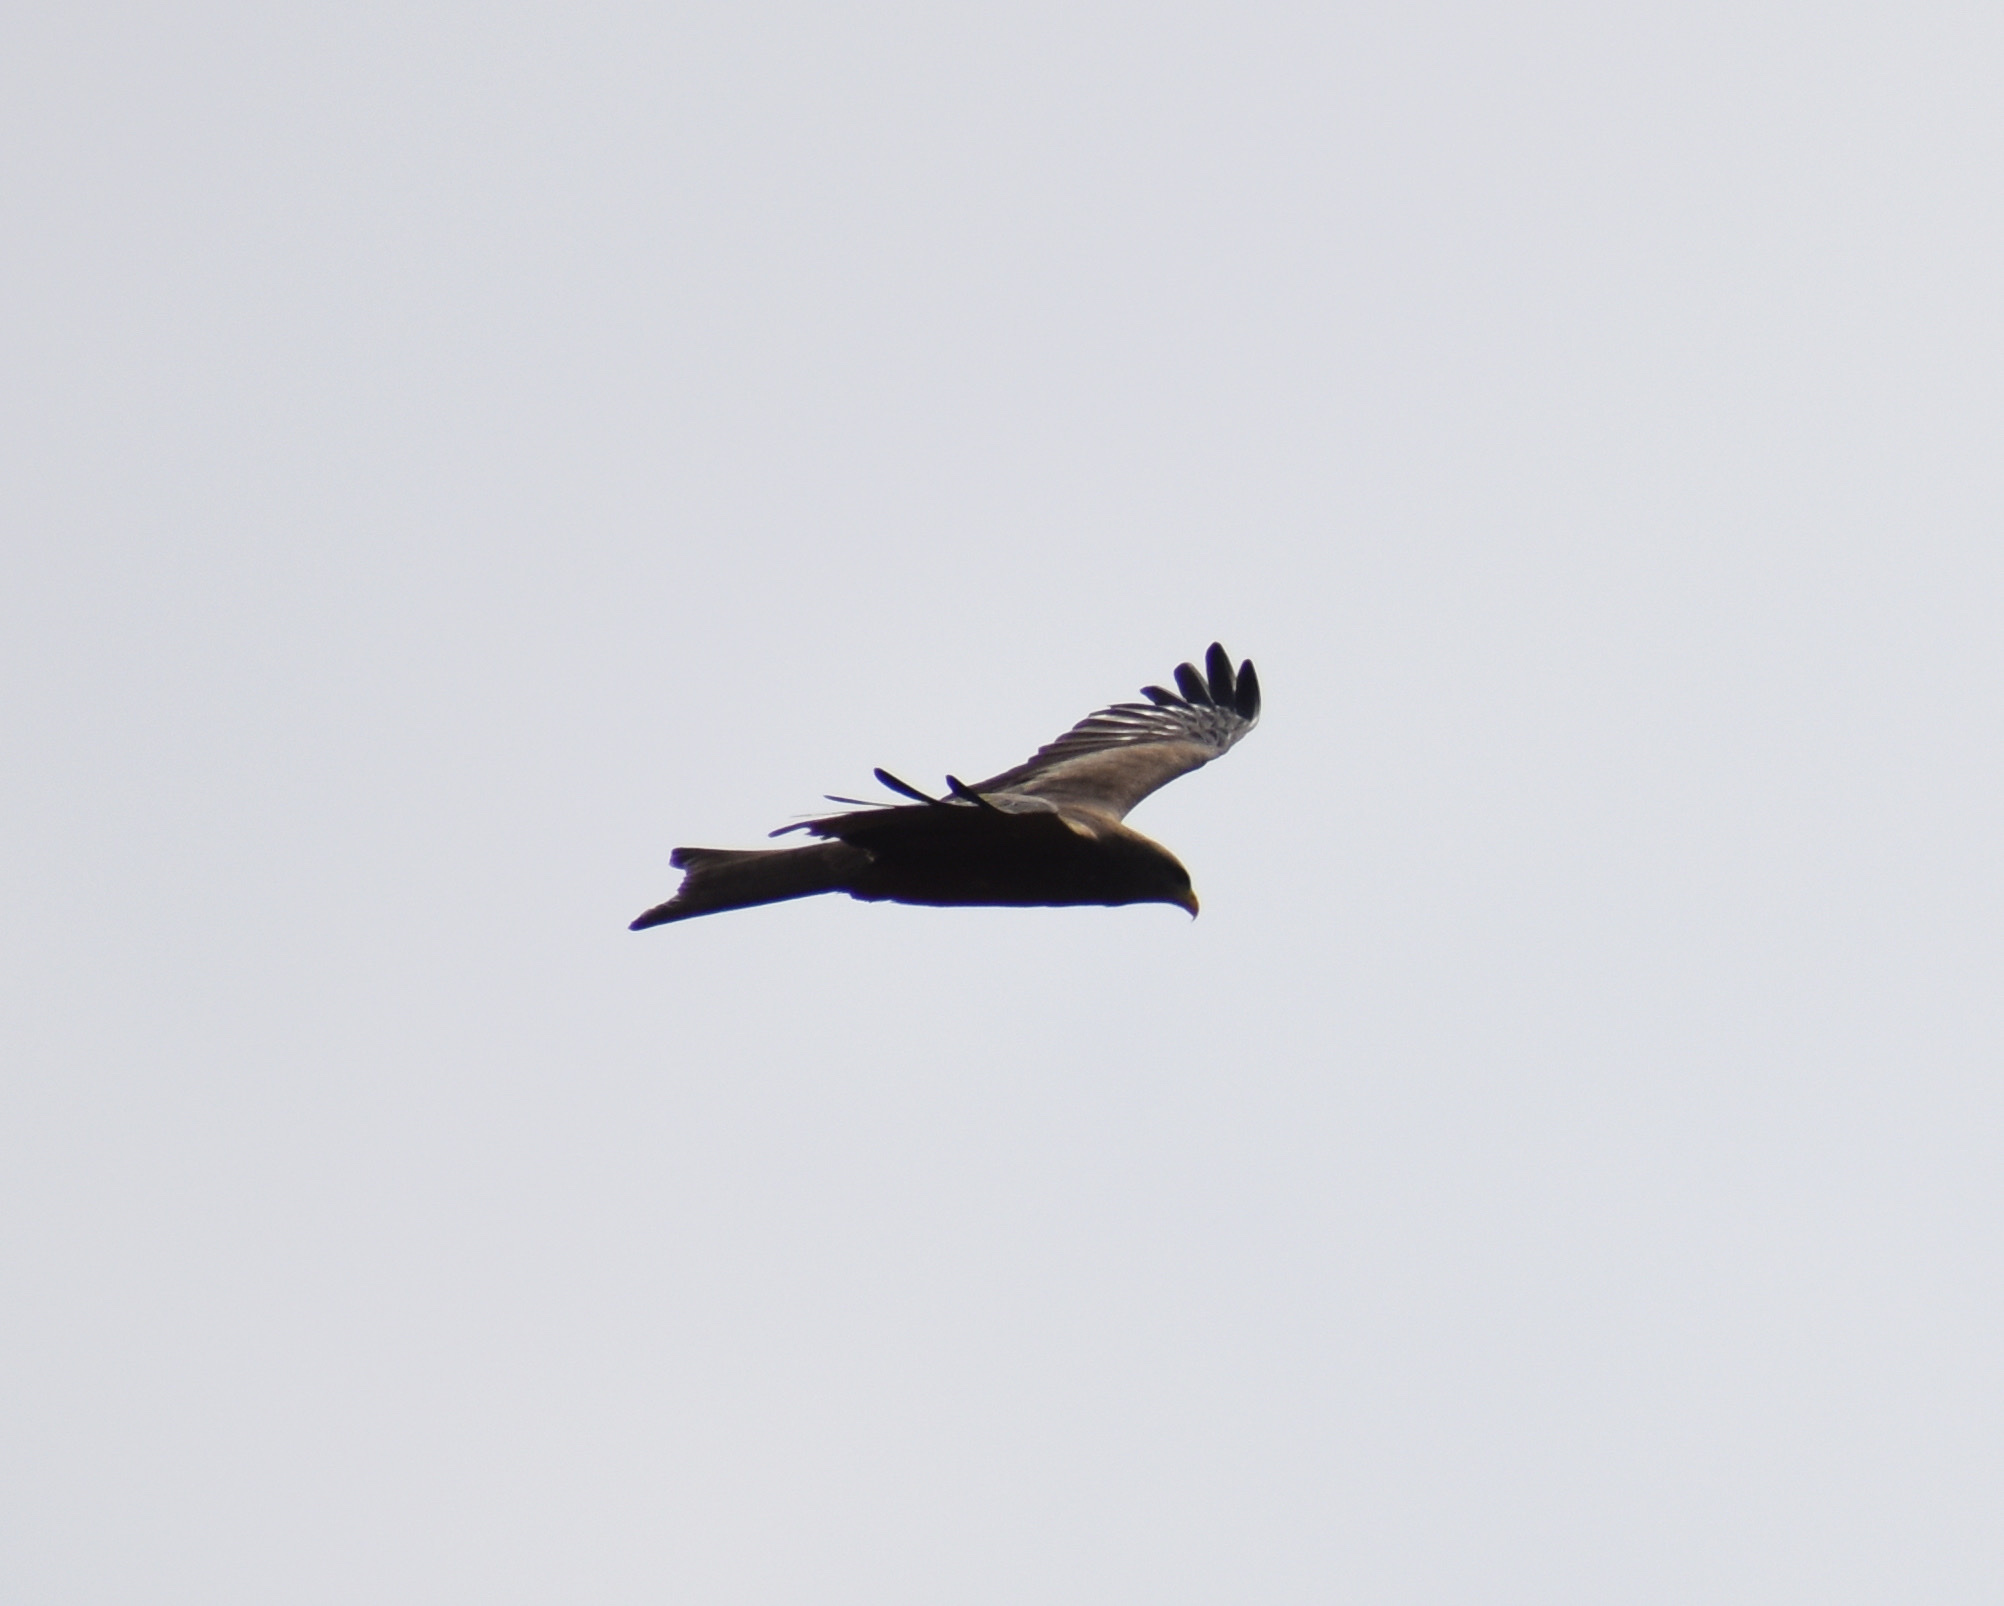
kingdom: Animalia
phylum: Chordata
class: Aves
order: Accipitriformes
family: Accipitridae
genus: Milvus
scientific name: Milvus migrans
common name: Black kite
